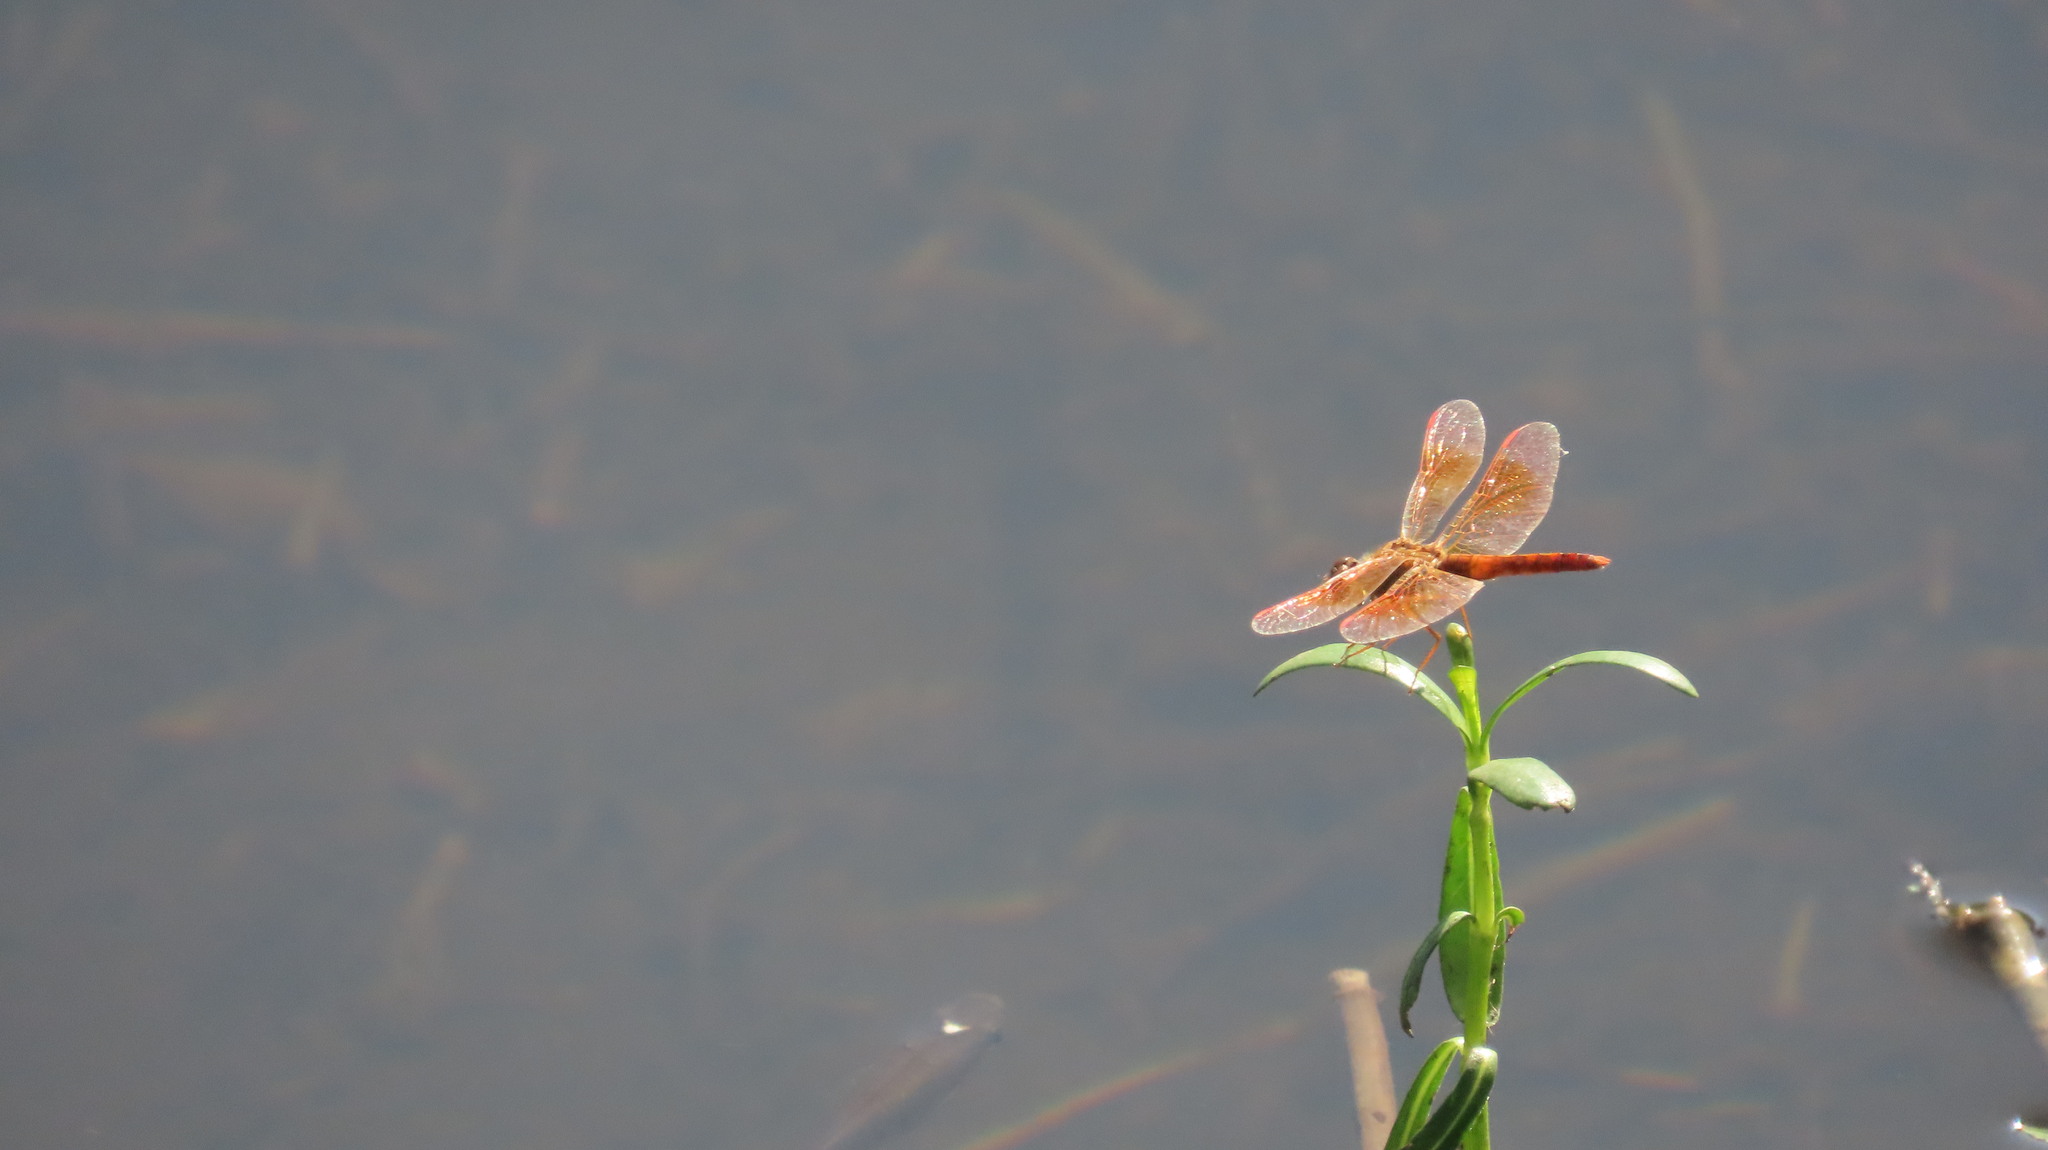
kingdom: Animalia
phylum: Arthropoda
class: Insecta
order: Odonata
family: Libellulidae
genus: Brachythemis
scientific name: Brachythemis contaminata
